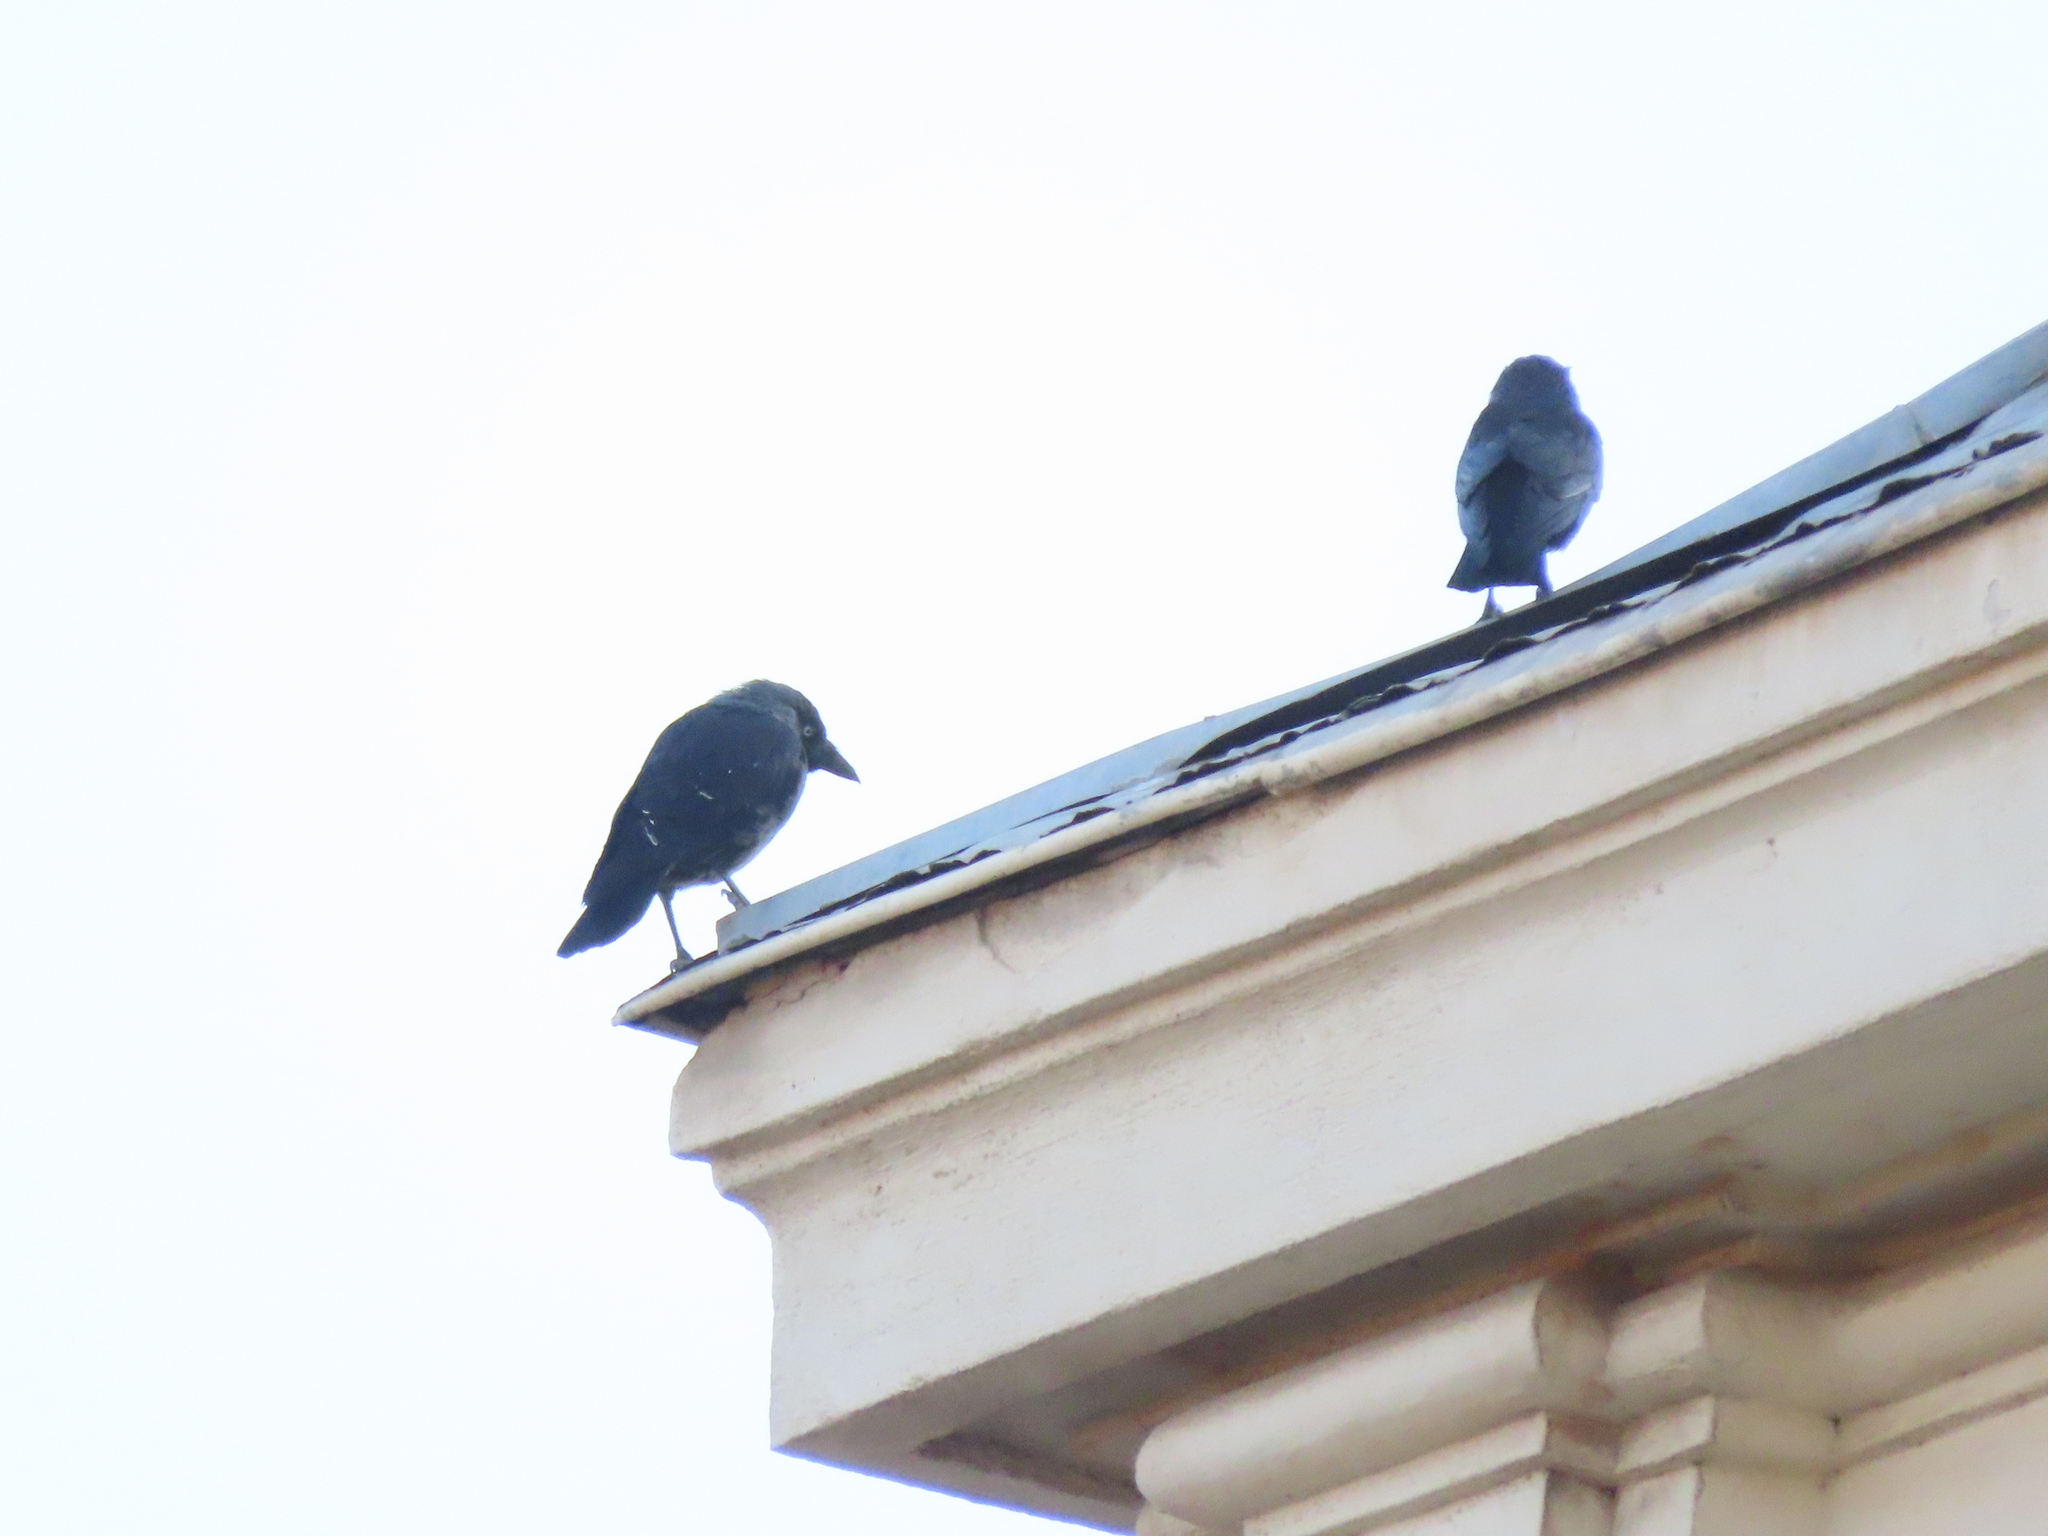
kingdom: Animalia
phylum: Chordata
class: Aves
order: Passeriformes
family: Corvidae
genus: Coloeus
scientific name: Coloeus monedula
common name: Western jackdaw
